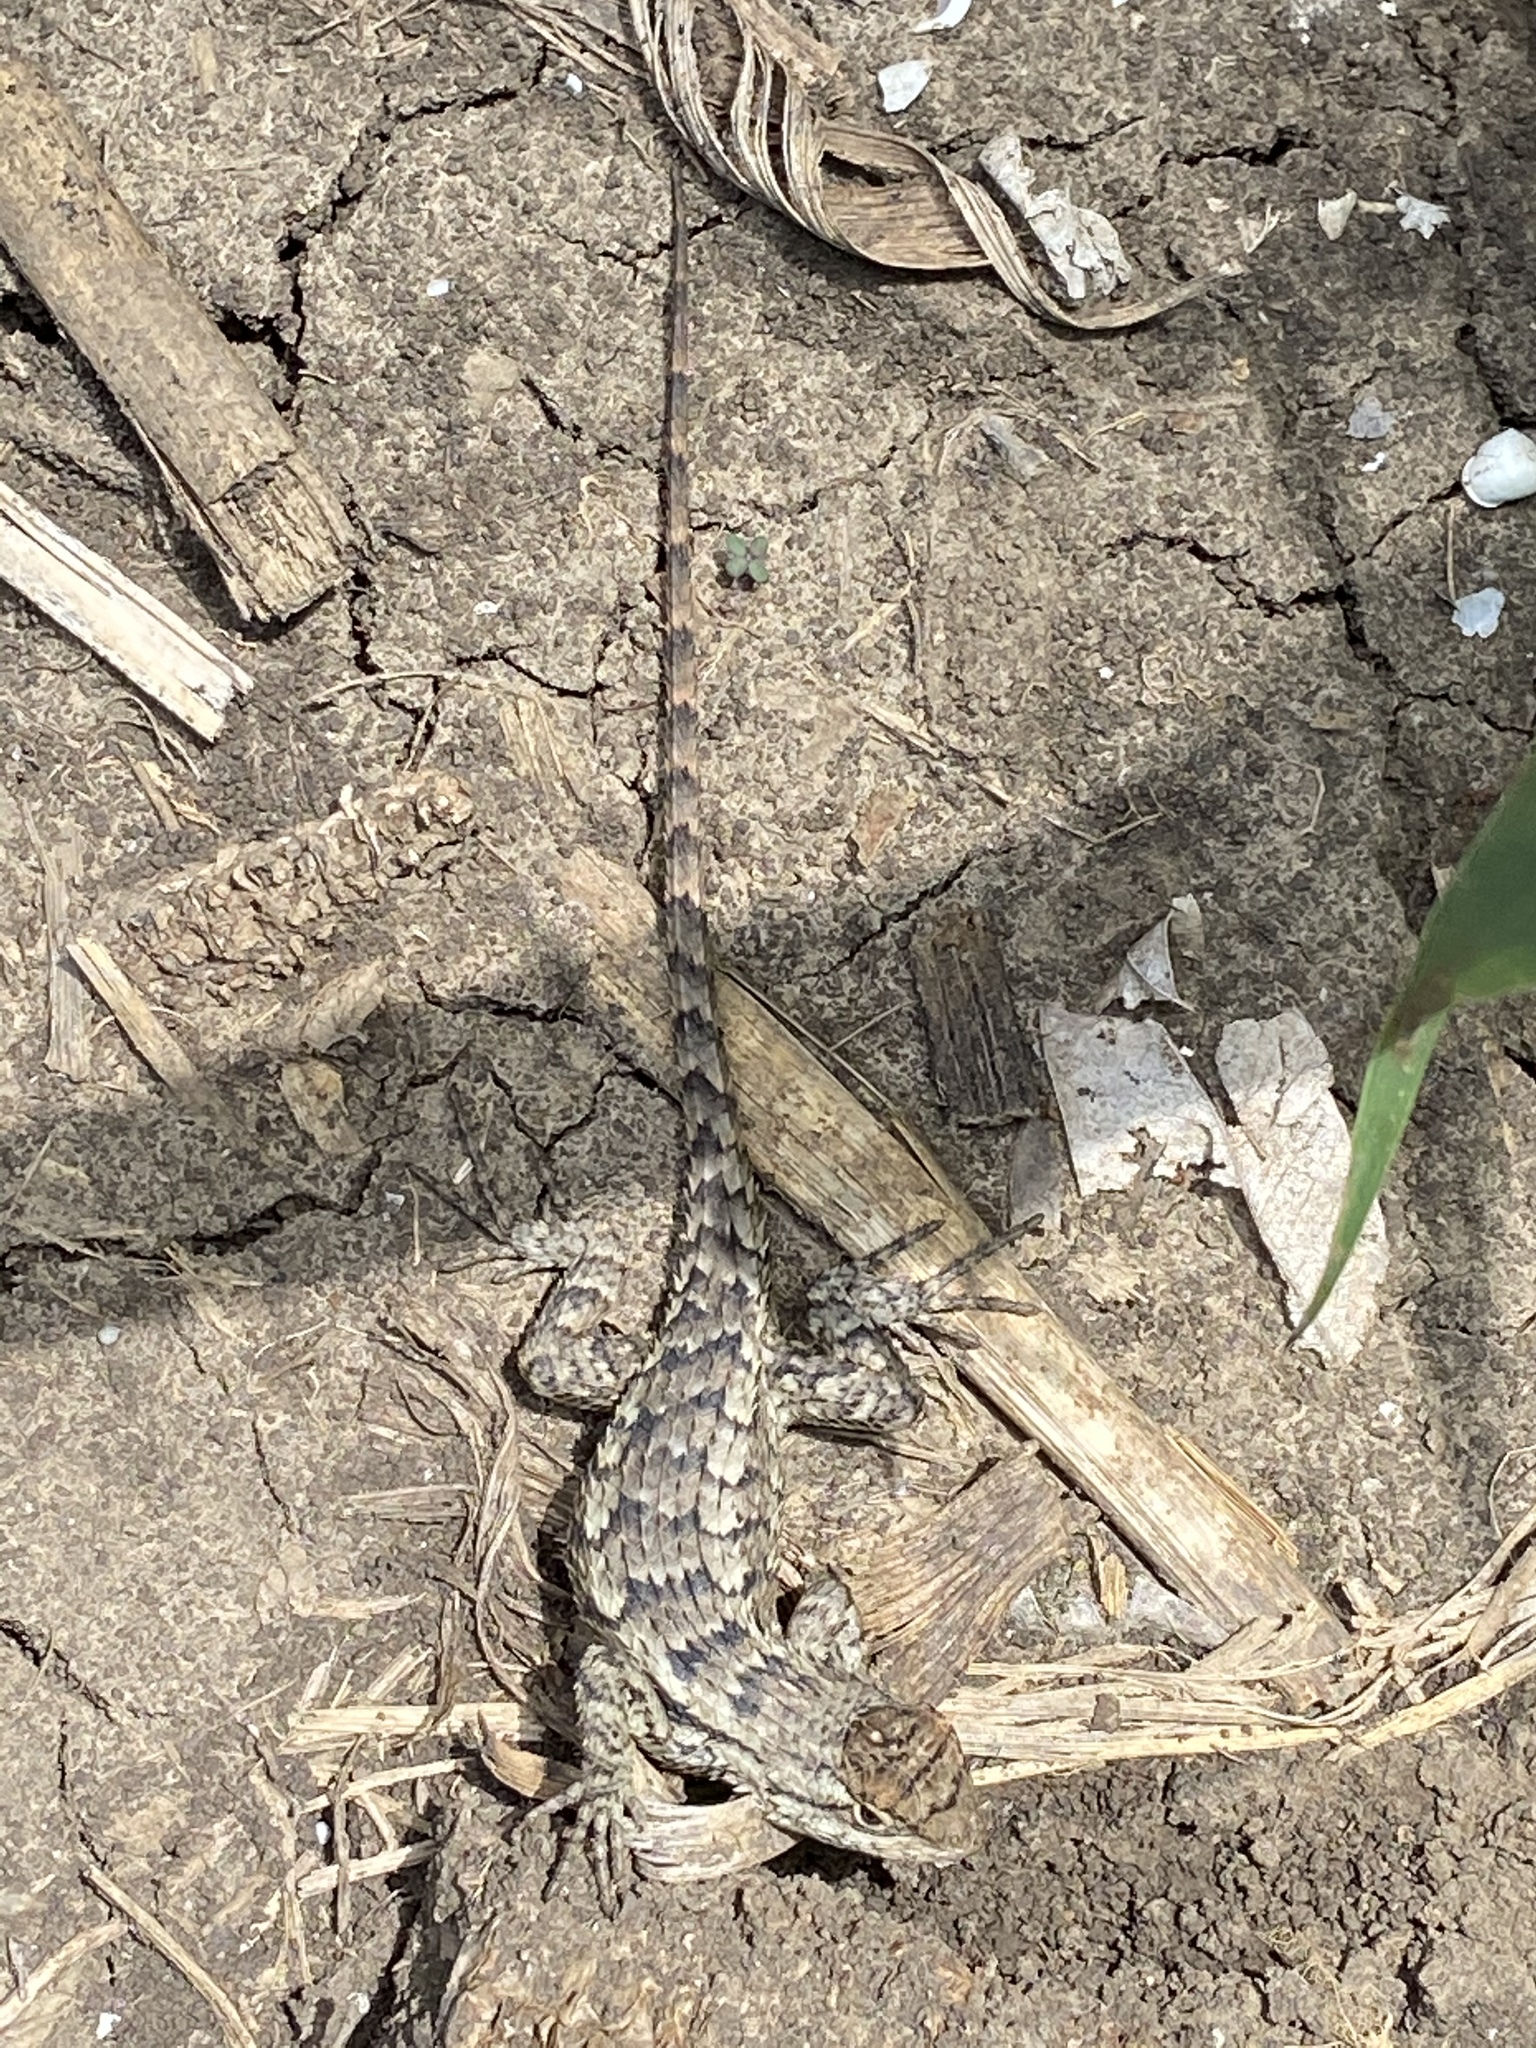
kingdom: Animalia
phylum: Chordata
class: Squamata
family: Phrynosomatidae
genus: Sceloporus
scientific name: Sceloporus olivaceus
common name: Texas spiny lizard
